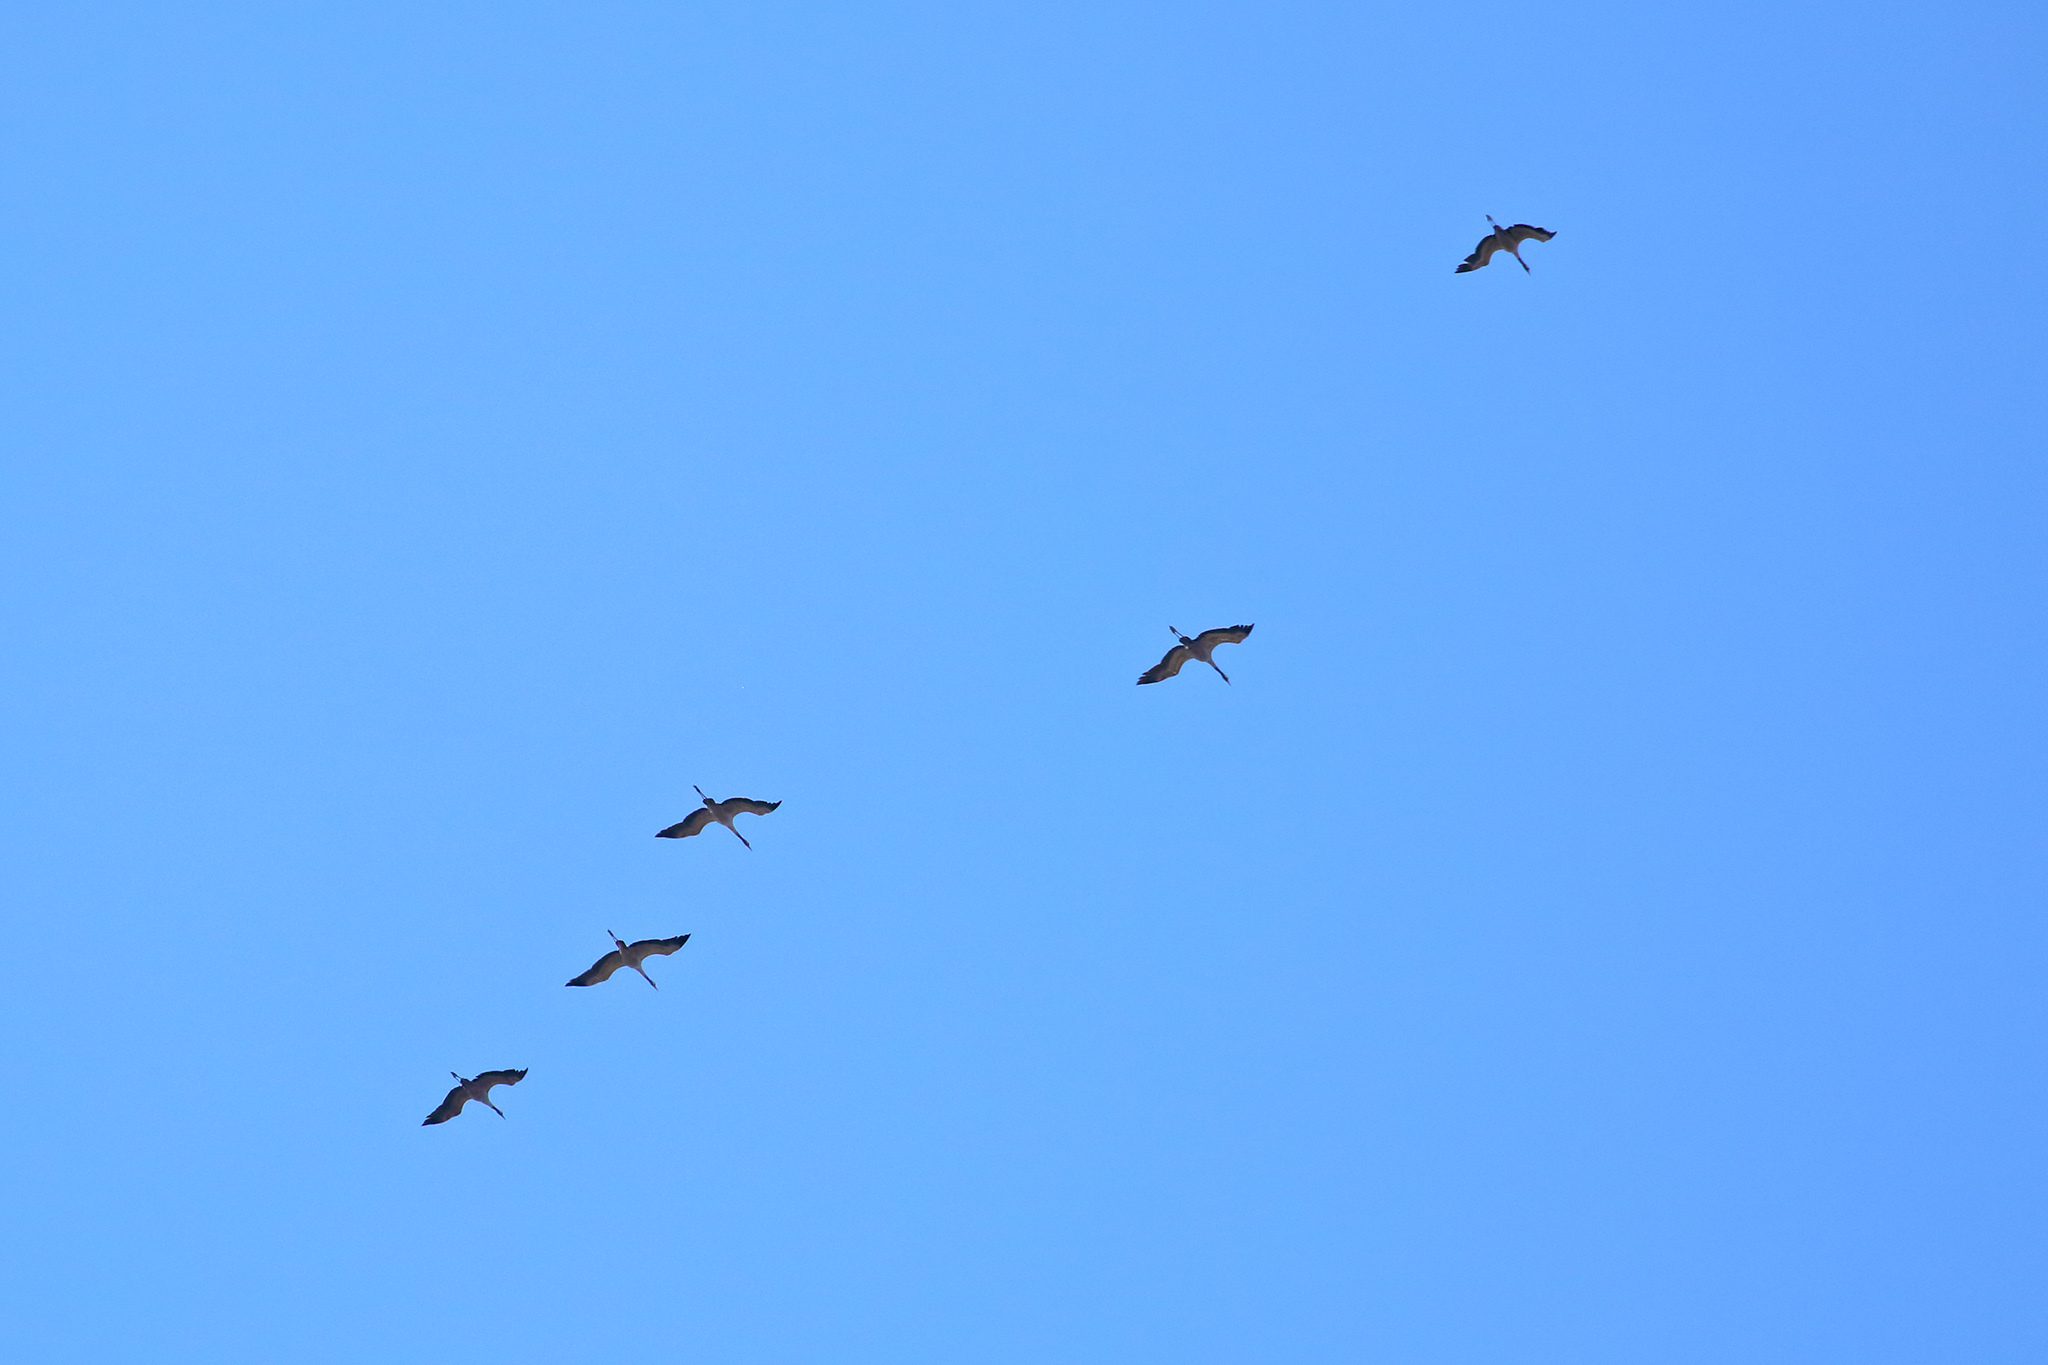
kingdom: Animalia
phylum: Chordata
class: Aves
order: Gruiformes
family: Gruidae
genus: Grus
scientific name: Grus grus
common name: Common crane
